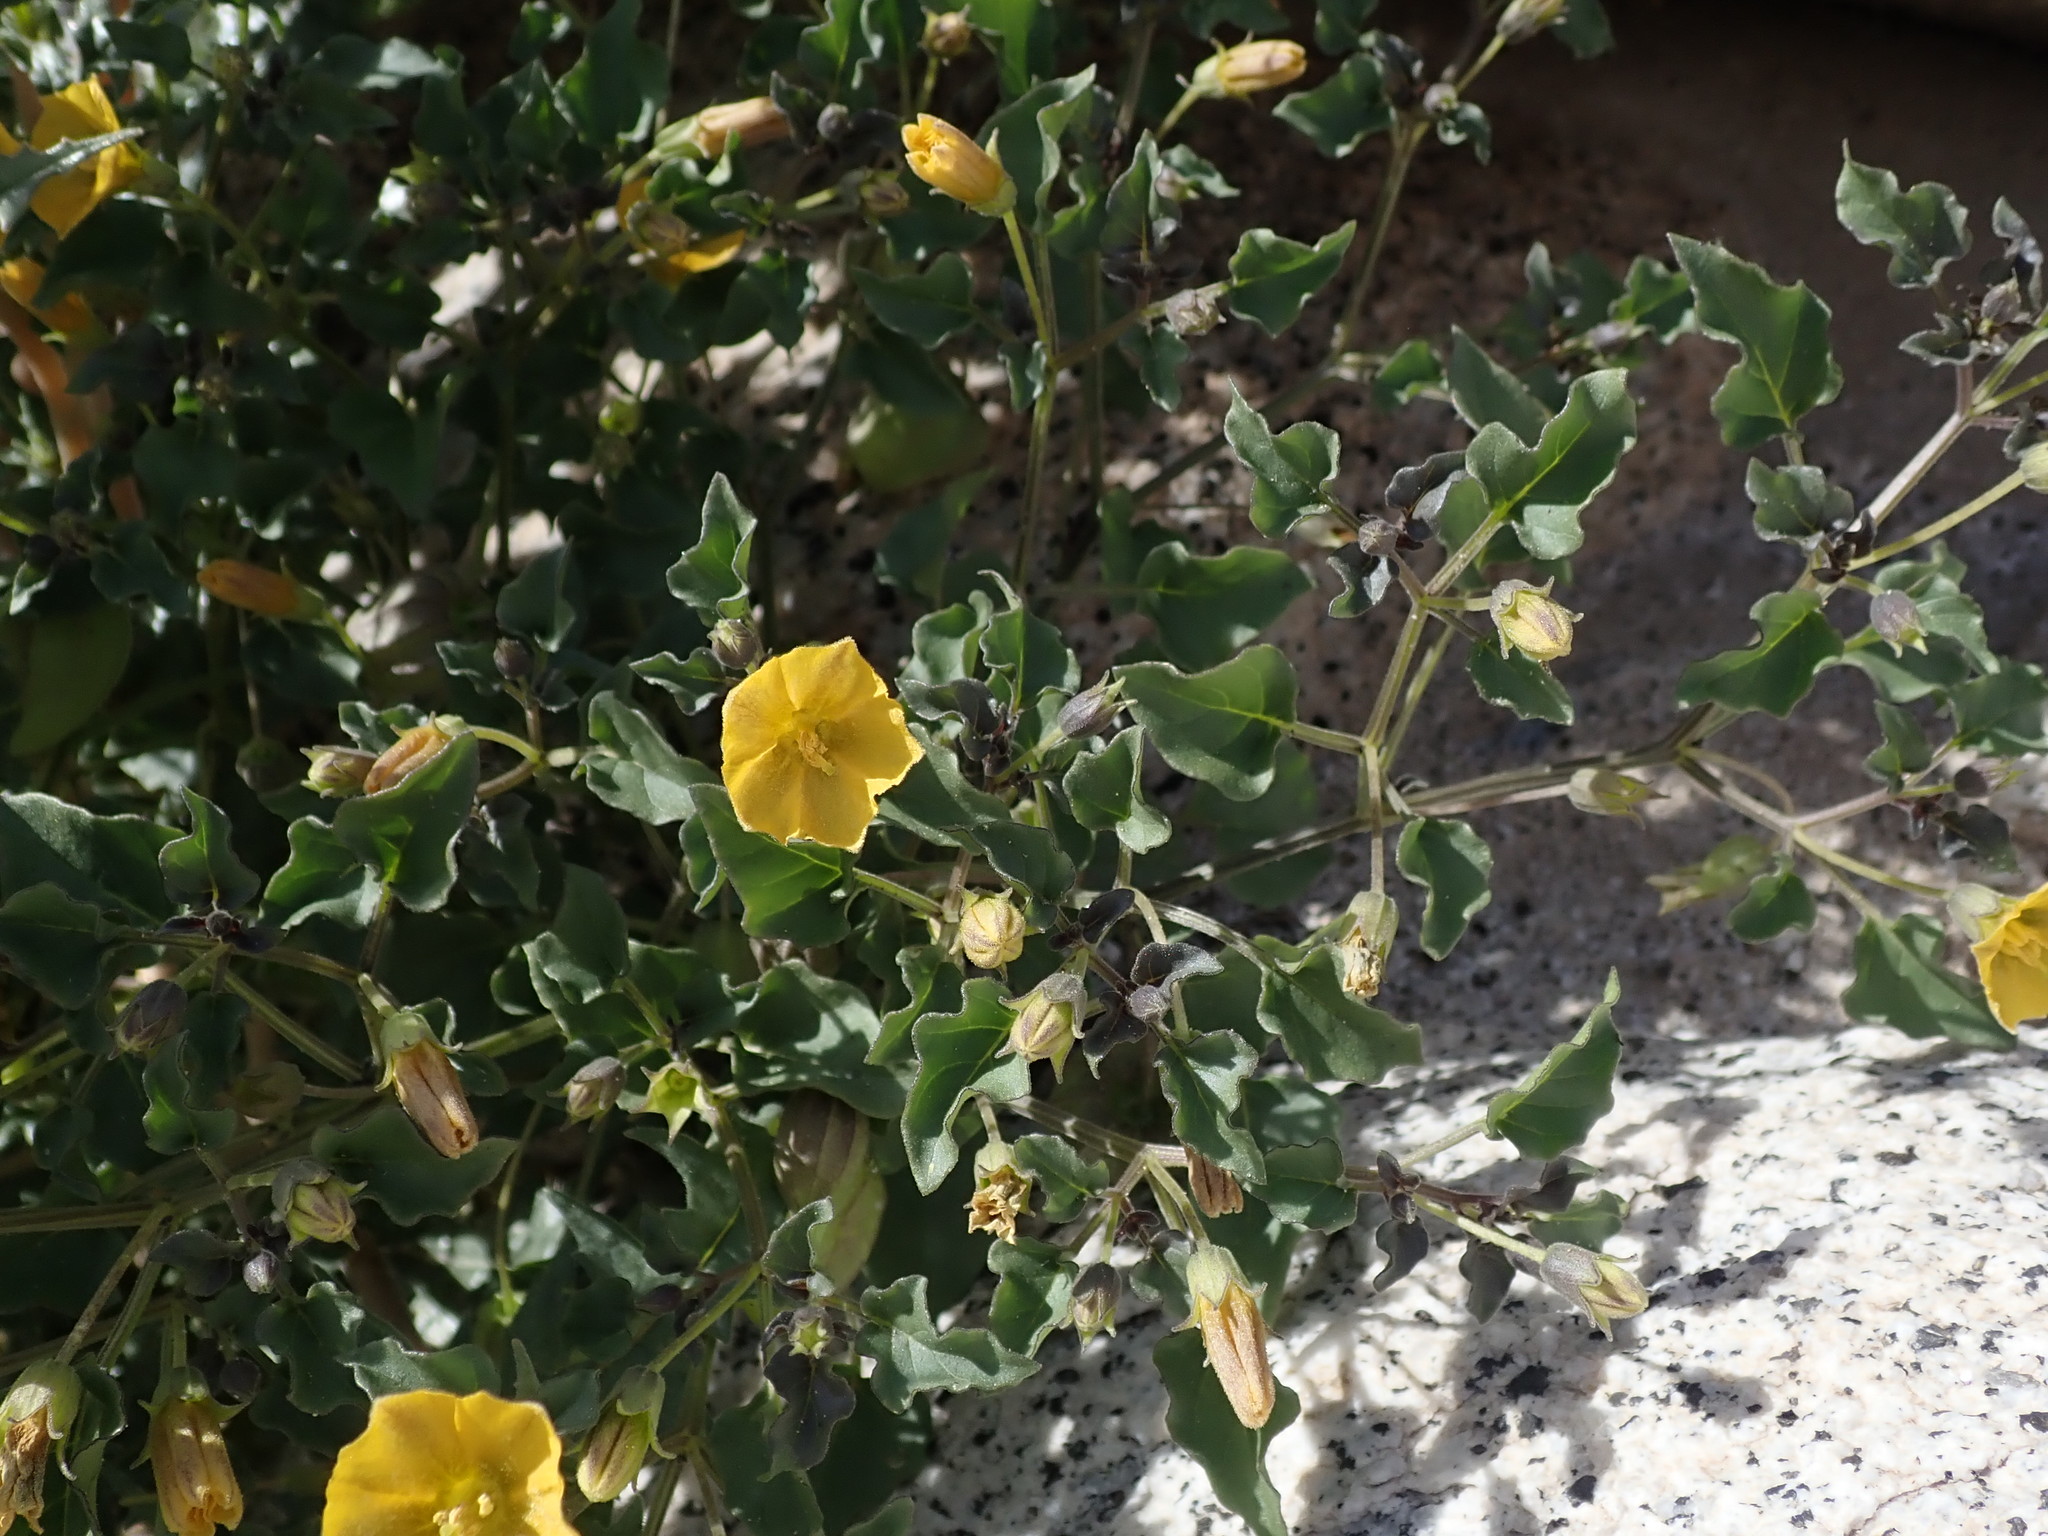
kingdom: Plantae
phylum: Tracheophyta
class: Magnoliopsida
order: Solanales
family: Solanaceae
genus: Physalis
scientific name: Physalis crassifolia
